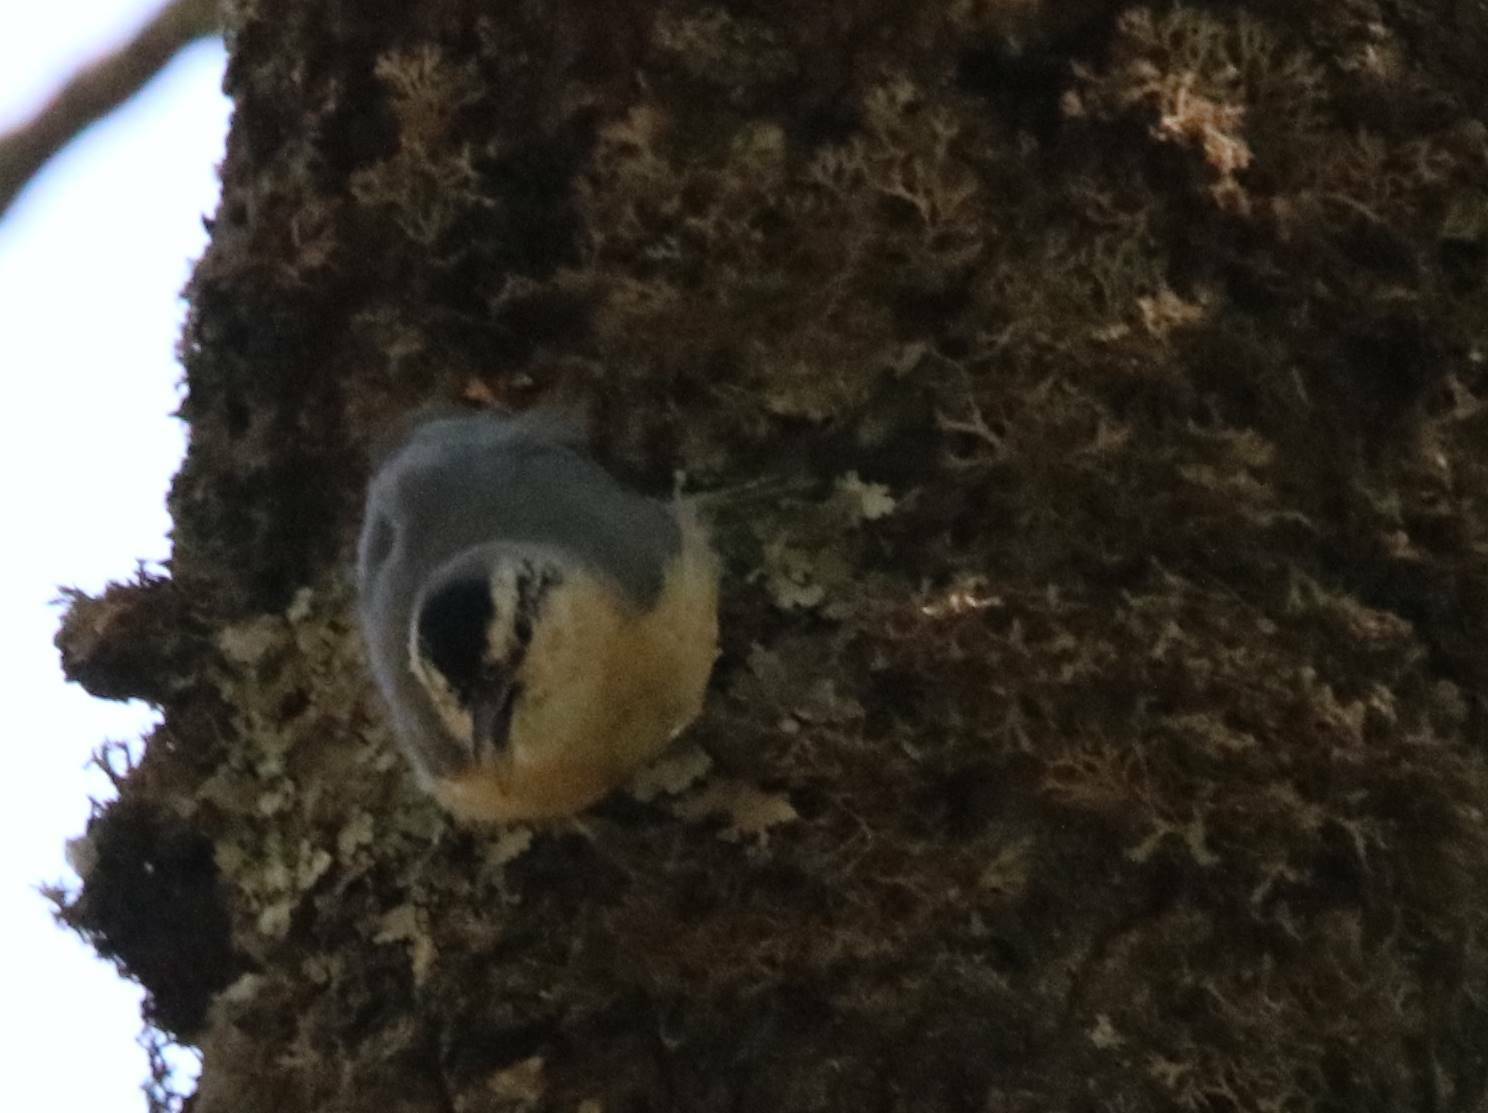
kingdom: Animalia
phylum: Chordata
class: Aves
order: Passeriformes
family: Sittidae
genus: Sitta
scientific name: Sitta ledanti
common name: Algerian nuthatch
